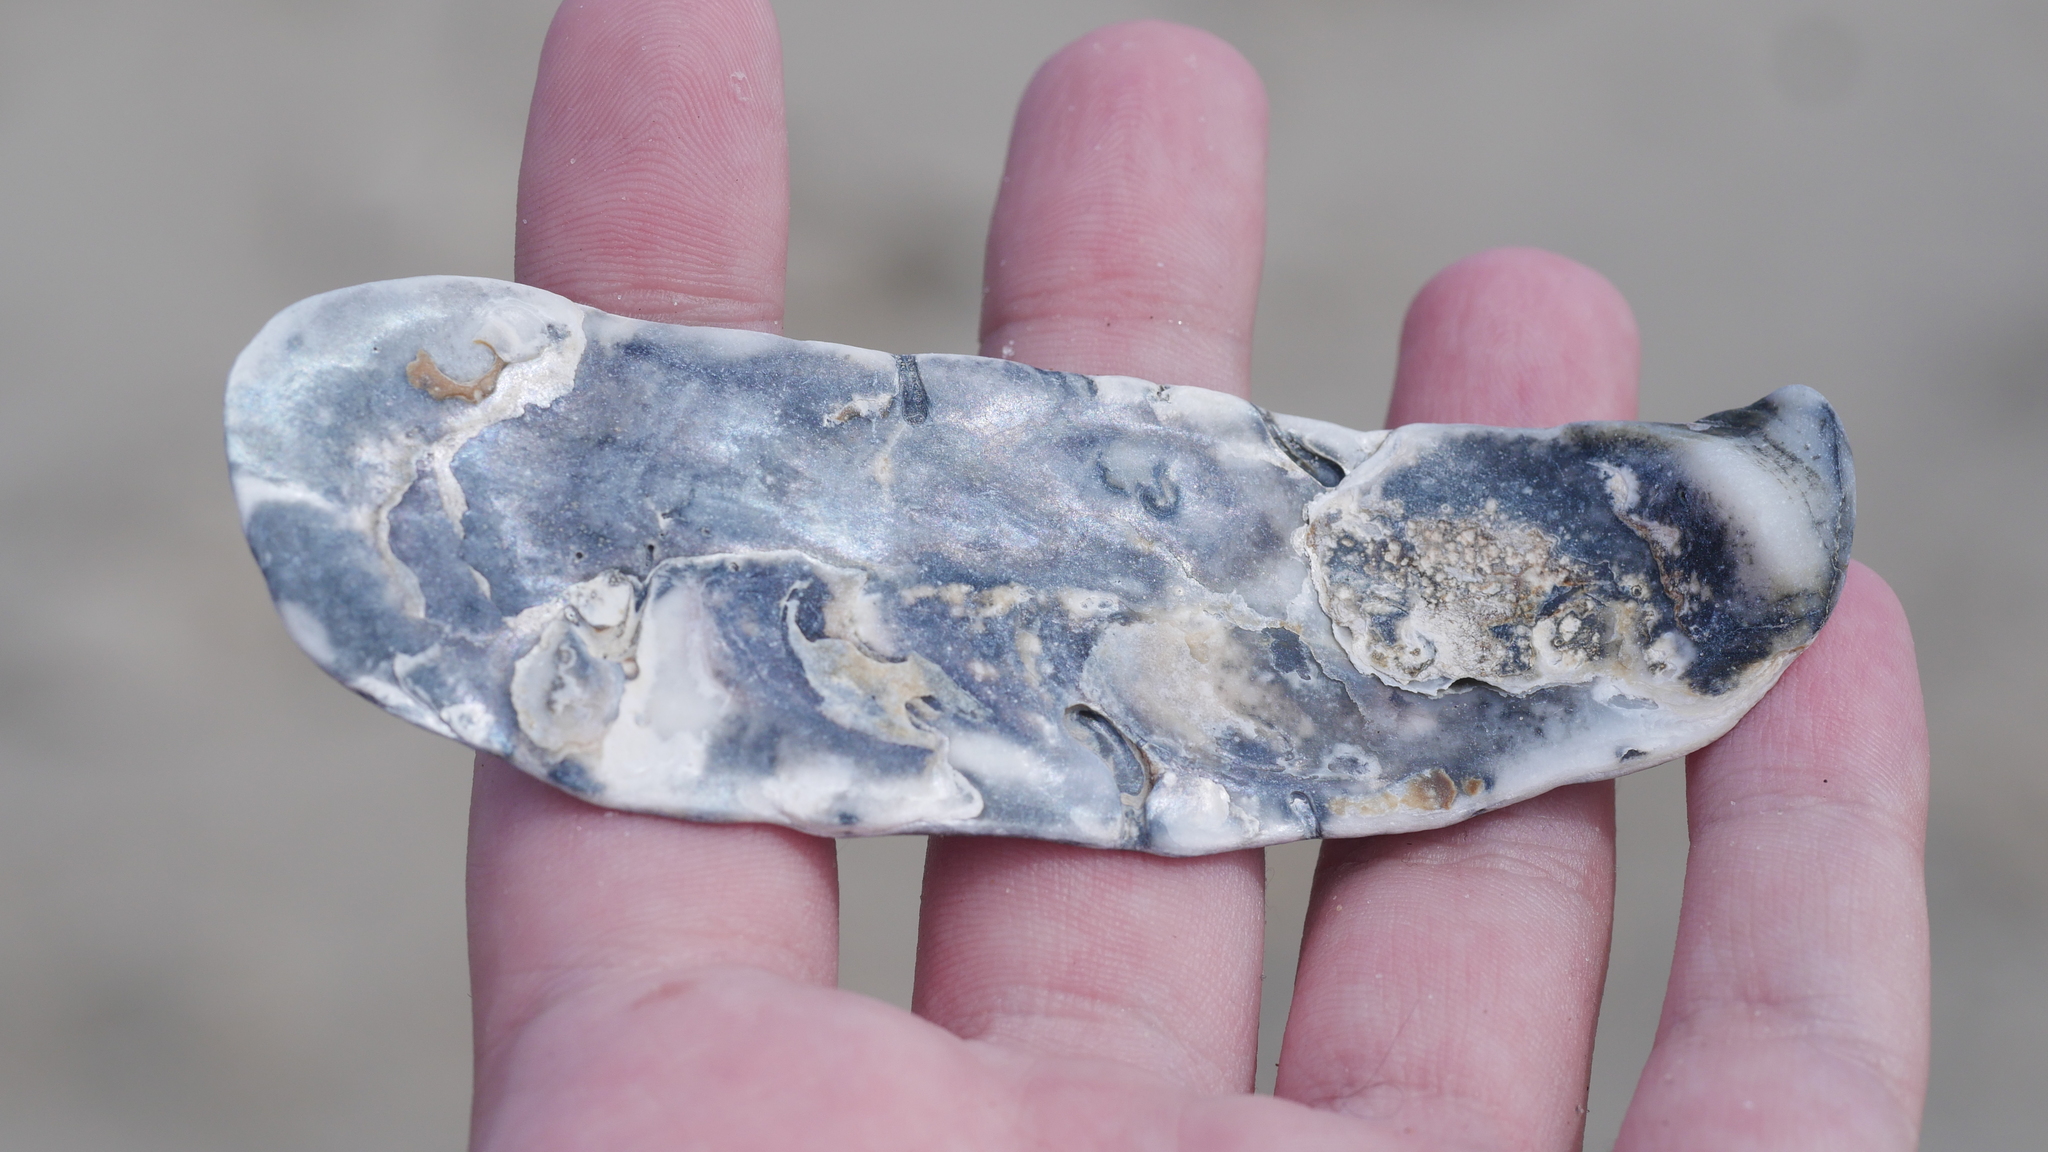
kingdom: Animalia
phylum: Mollusca
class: Bivalvia
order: Ostreida
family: Ostreidae
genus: Crassostrea
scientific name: Crassostrea virginica
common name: American oyster
